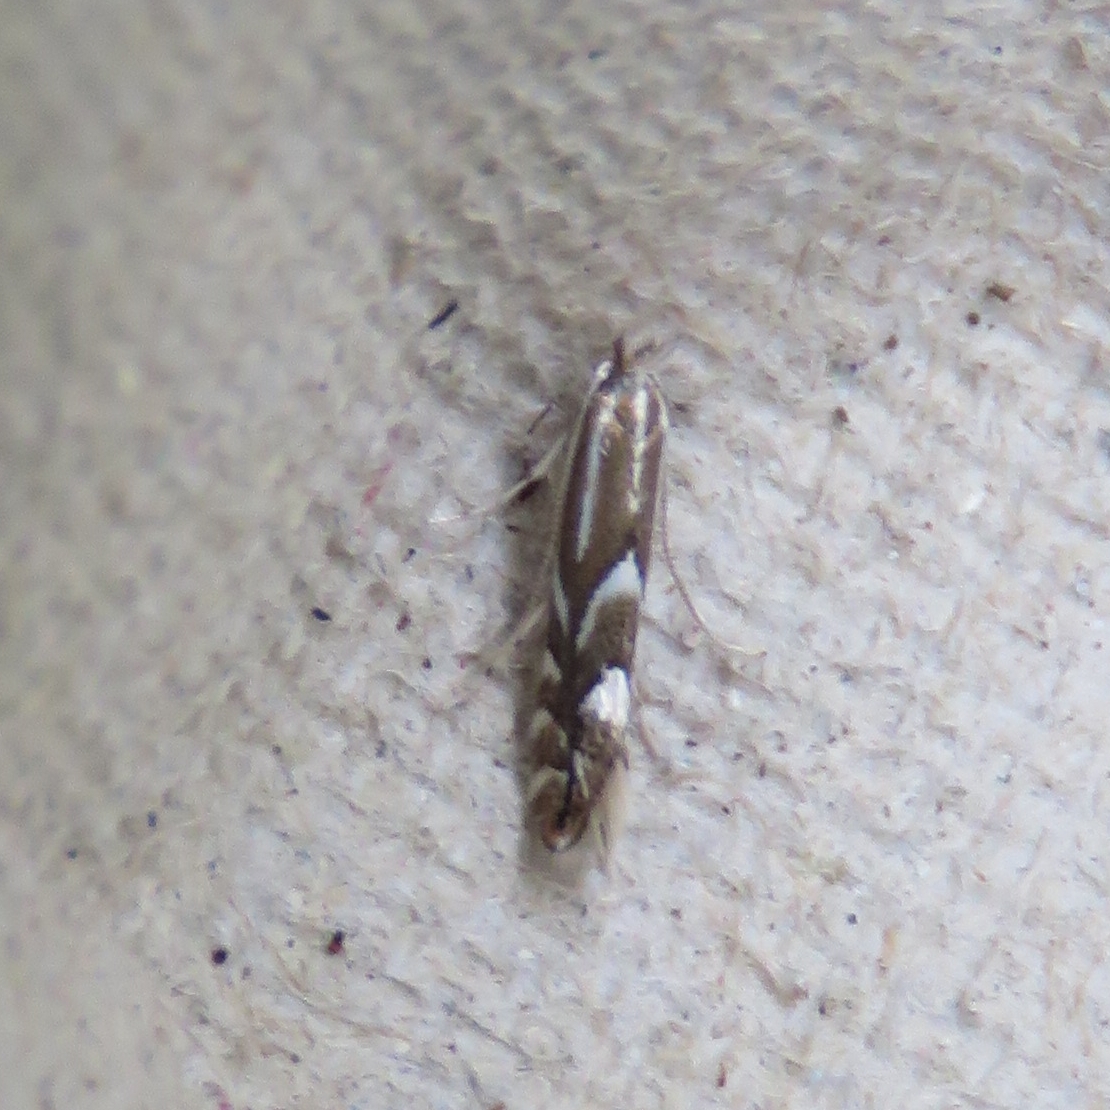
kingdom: Animalia
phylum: Arthropoda
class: Insecta
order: Lepidoptera
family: Gracillariidae
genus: Cameraria
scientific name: Cameraria ohridella
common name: Horse-chestnut leaf-miner
